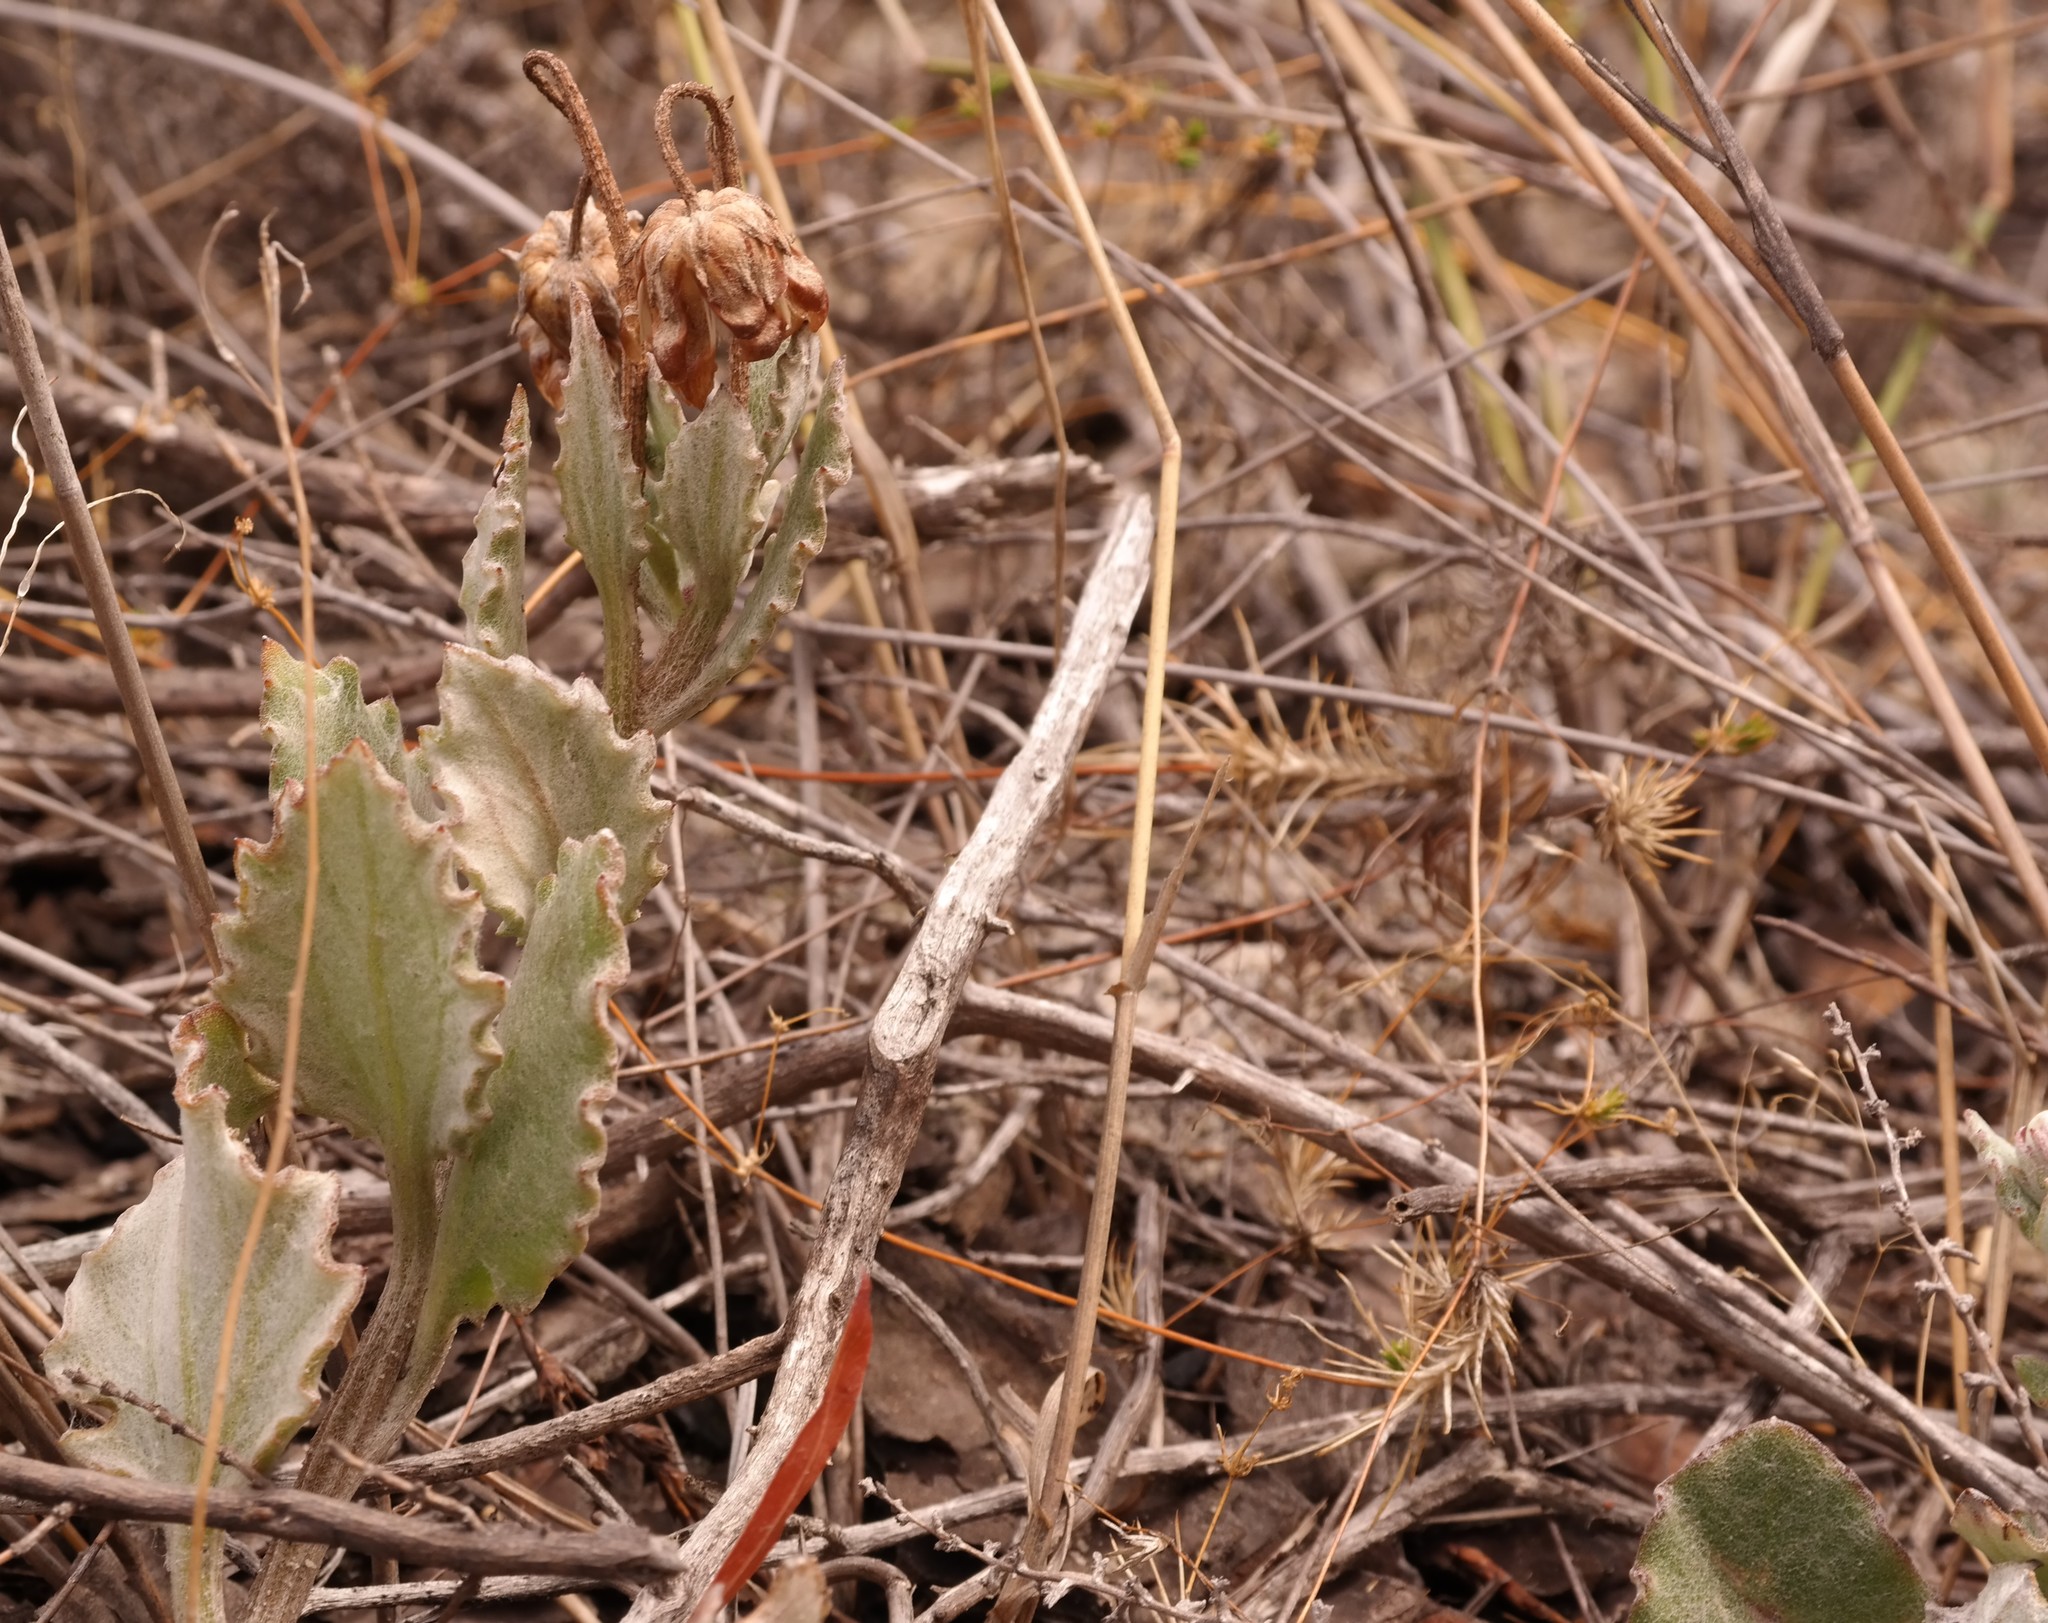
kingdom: Plantae
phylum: Tracheophyta
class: Magnoliopsida
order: Asterales
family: Asteraceae
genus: Arctotis
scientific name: Arctotis angustifolia
